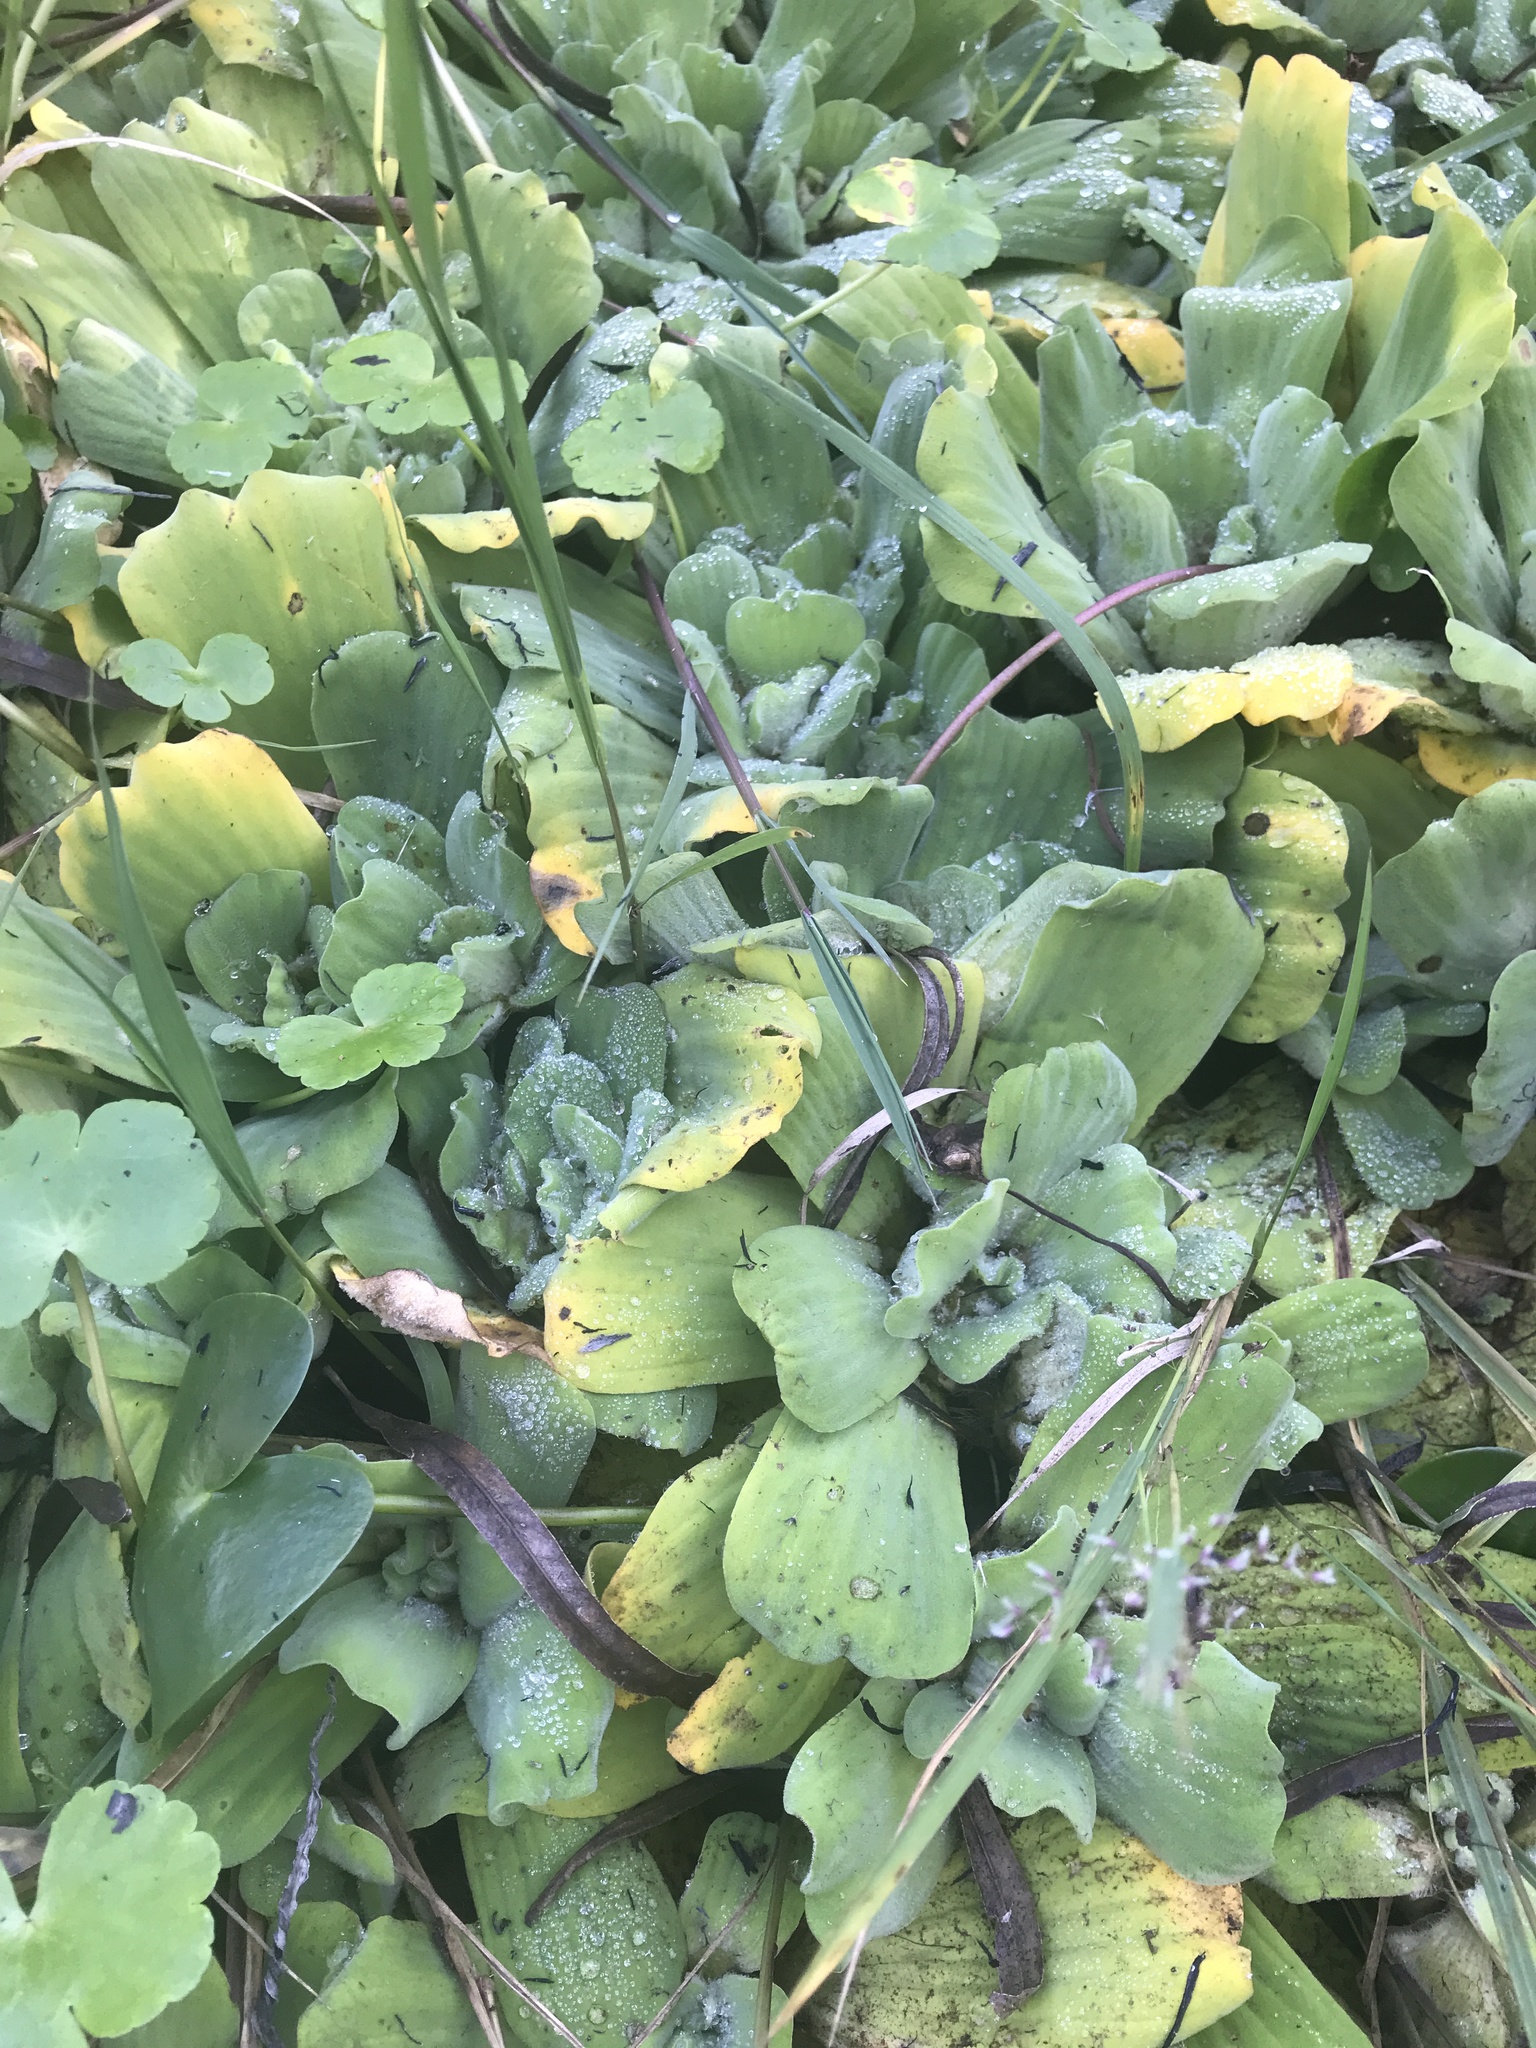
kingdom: Plantae
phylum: Tracheophyta
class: Liliopsida
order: Alismatales
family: Araceae
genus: Pistia
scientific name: Pistia stratiotes
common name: Water lettuce
